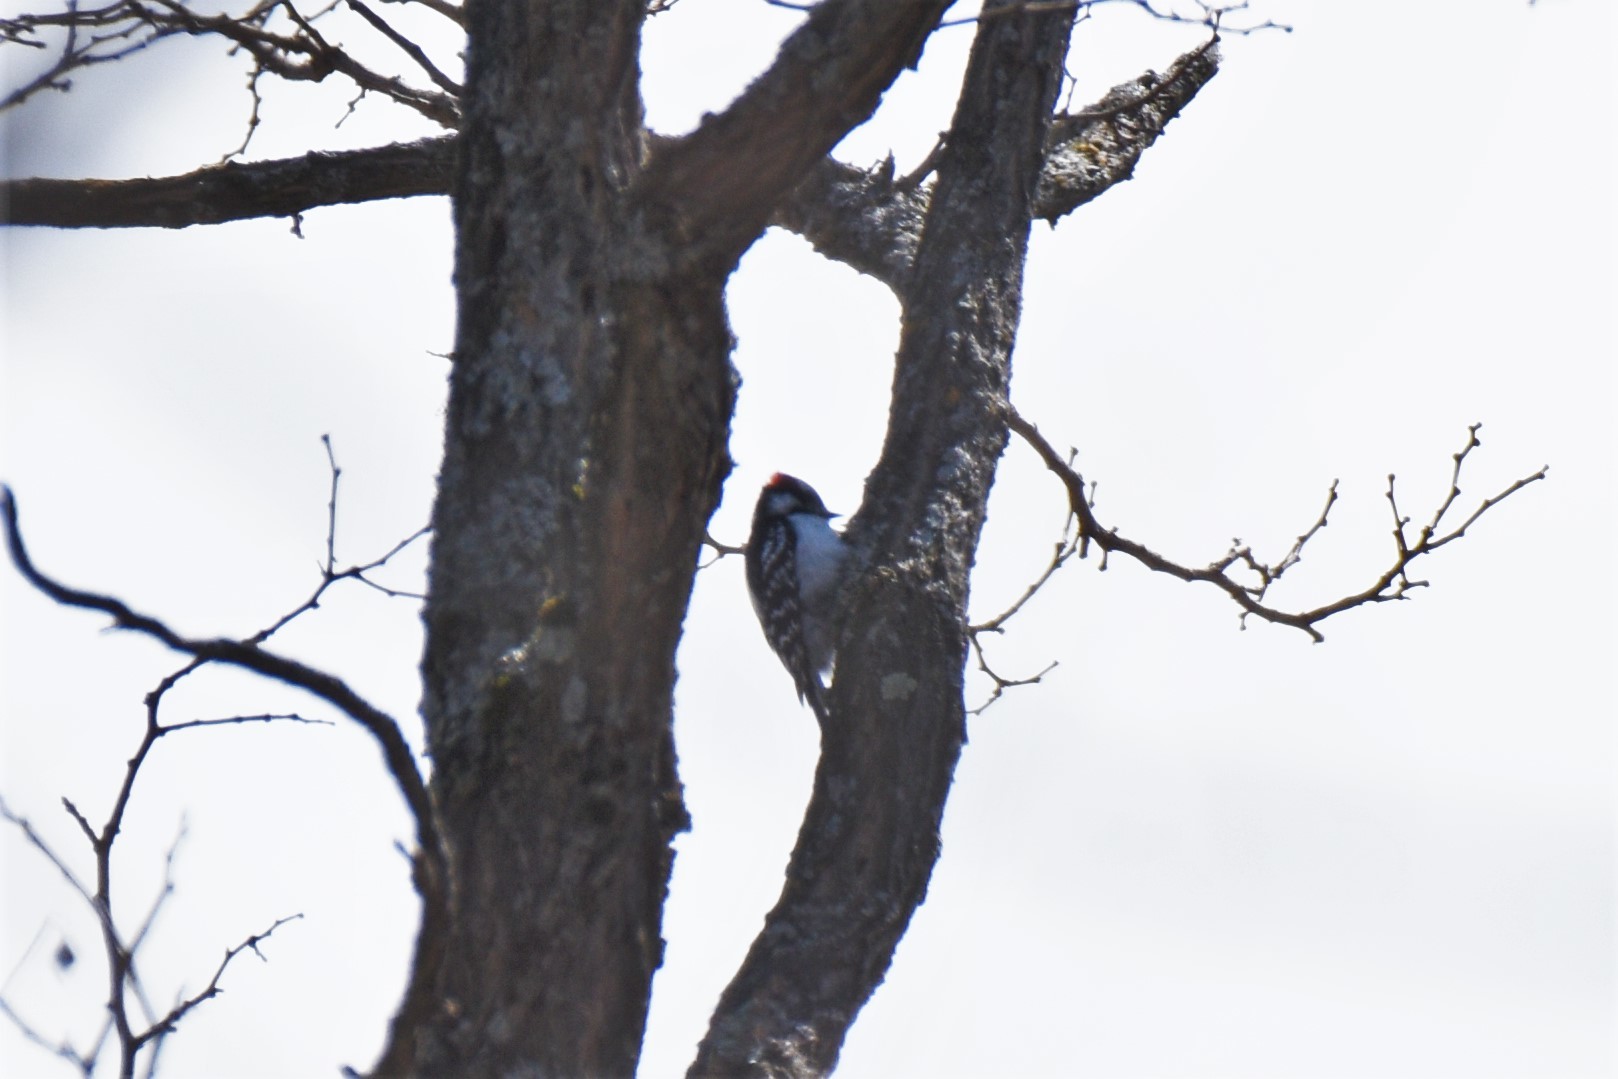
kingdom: Animalia
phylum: Chordata
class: Aves
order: Piciformes
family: Picidae
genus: Dryobates
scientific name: Dryobates pubescens
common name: Downy woodpecker
